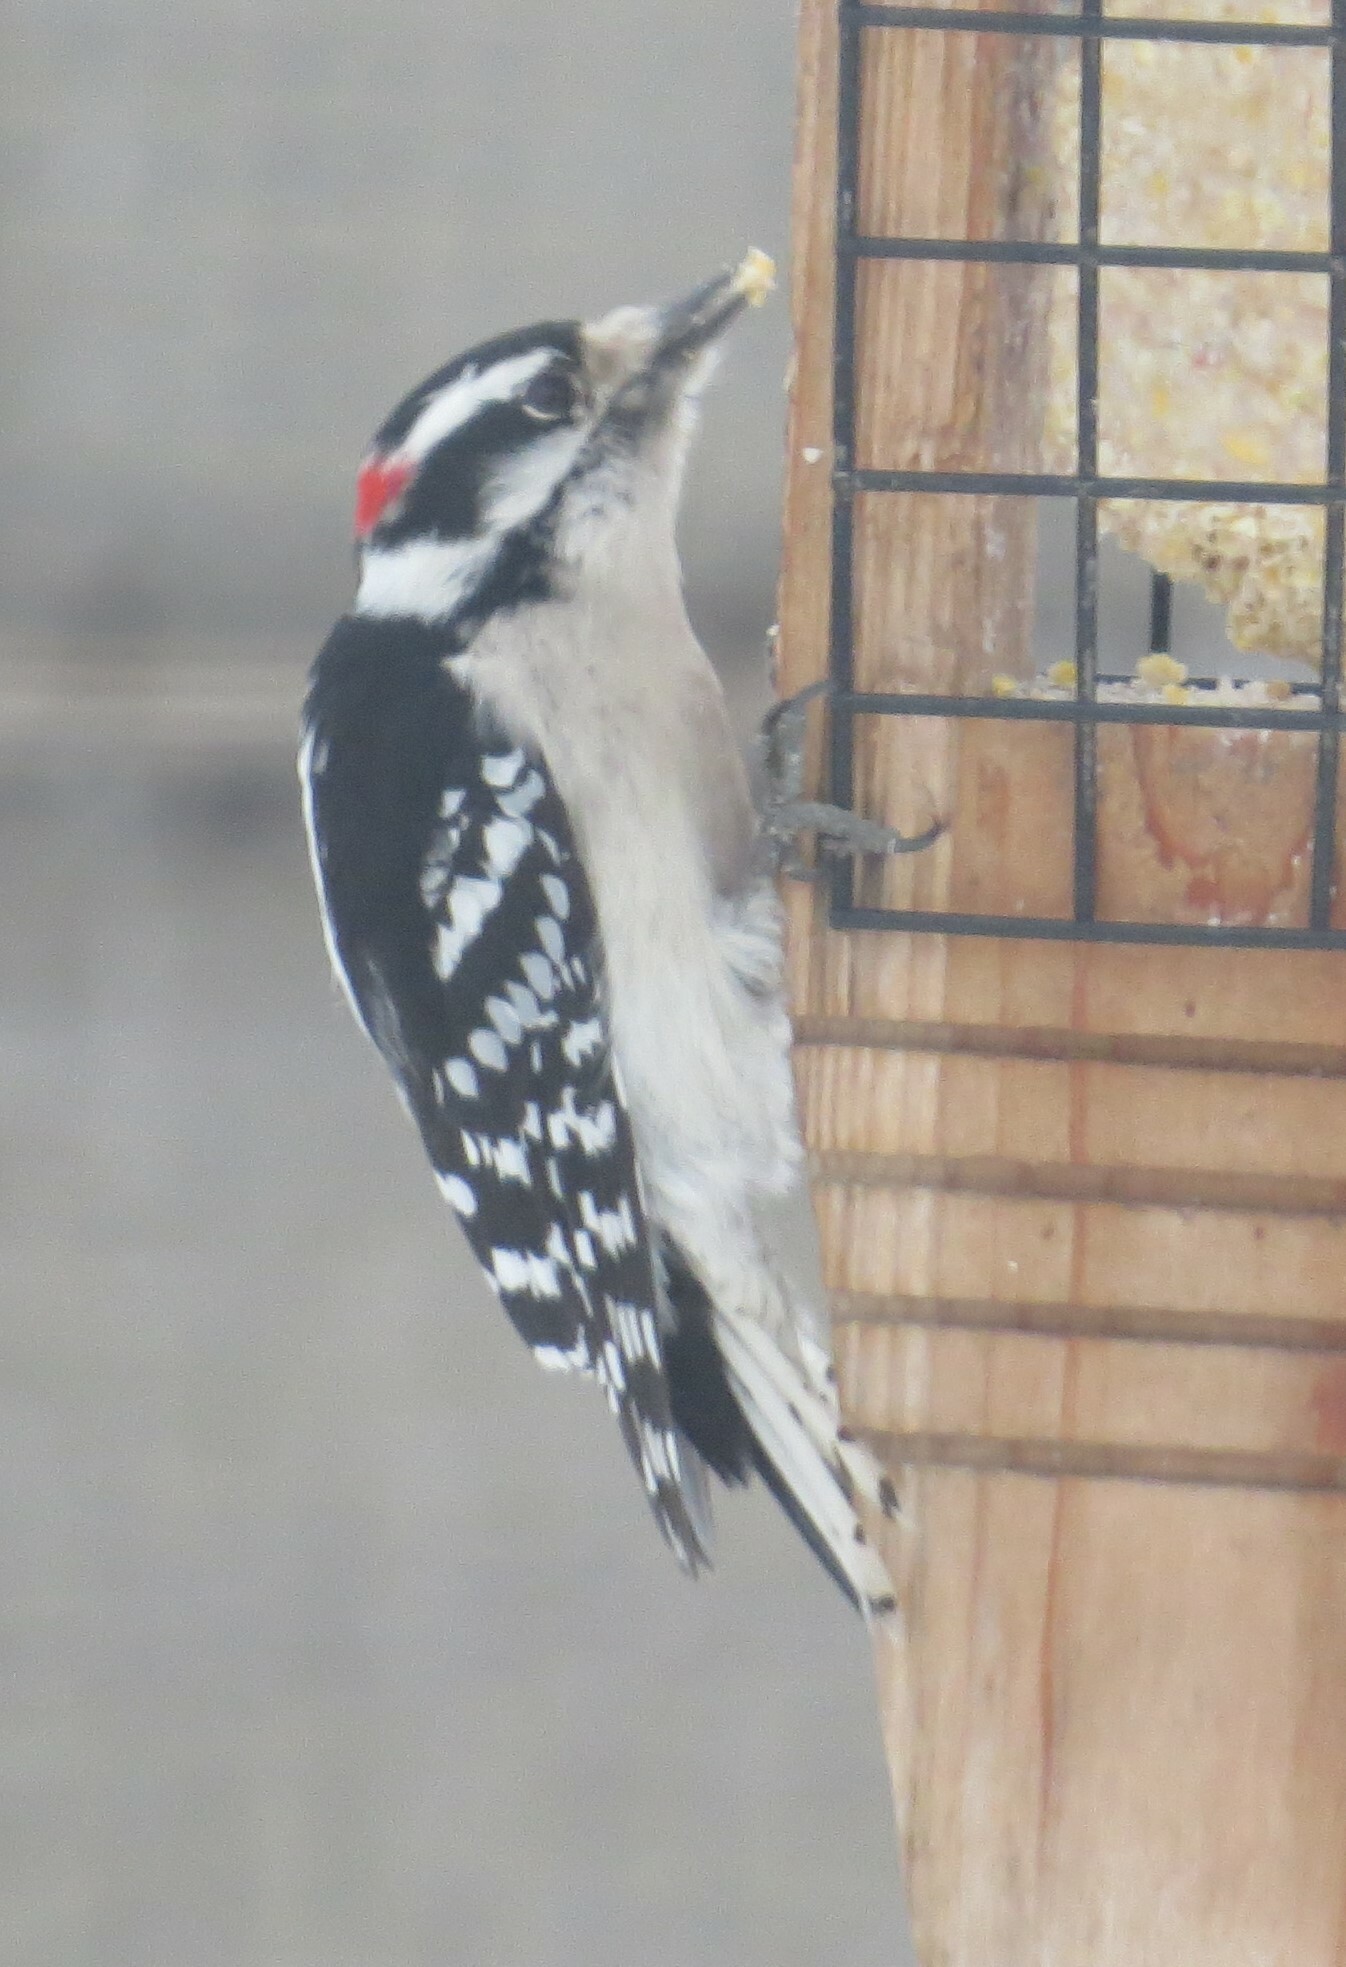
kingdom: Animalia
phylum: Chordata
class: Aves
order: Piciformes
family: Picidae
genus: Dryobates
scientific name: Dryobates pubescens
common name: Downy woodpecker
